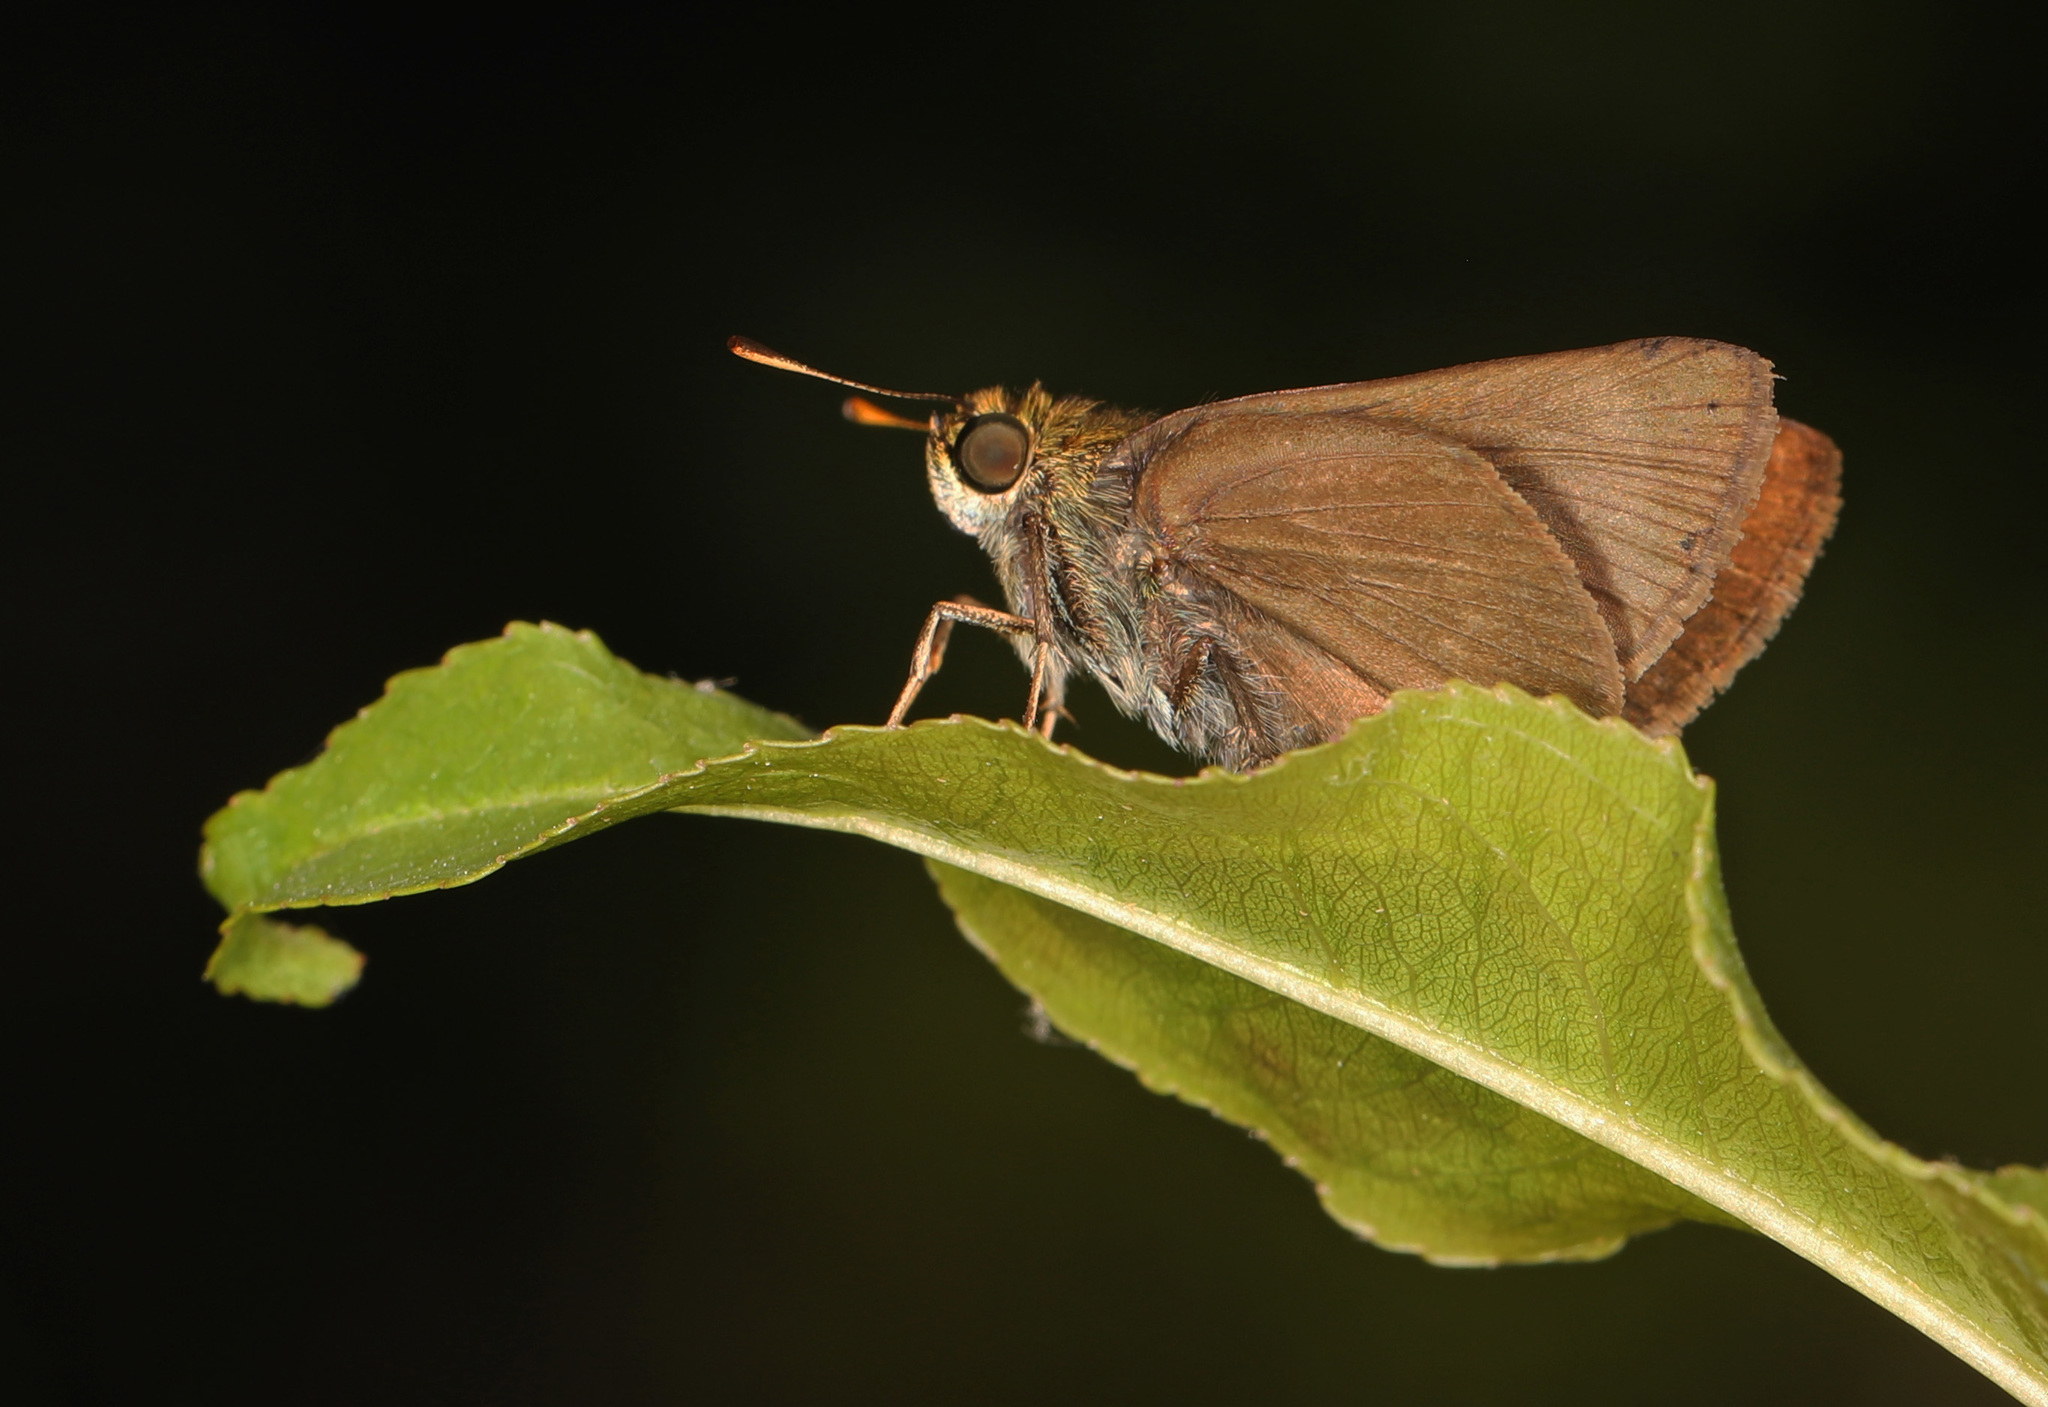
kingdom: Animalia
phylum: Arthropoda
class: Insecta
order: Lepidoptera
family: Hesperiidae
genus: Euphyes
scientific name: Euphyes vestris
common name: Dun skipper
